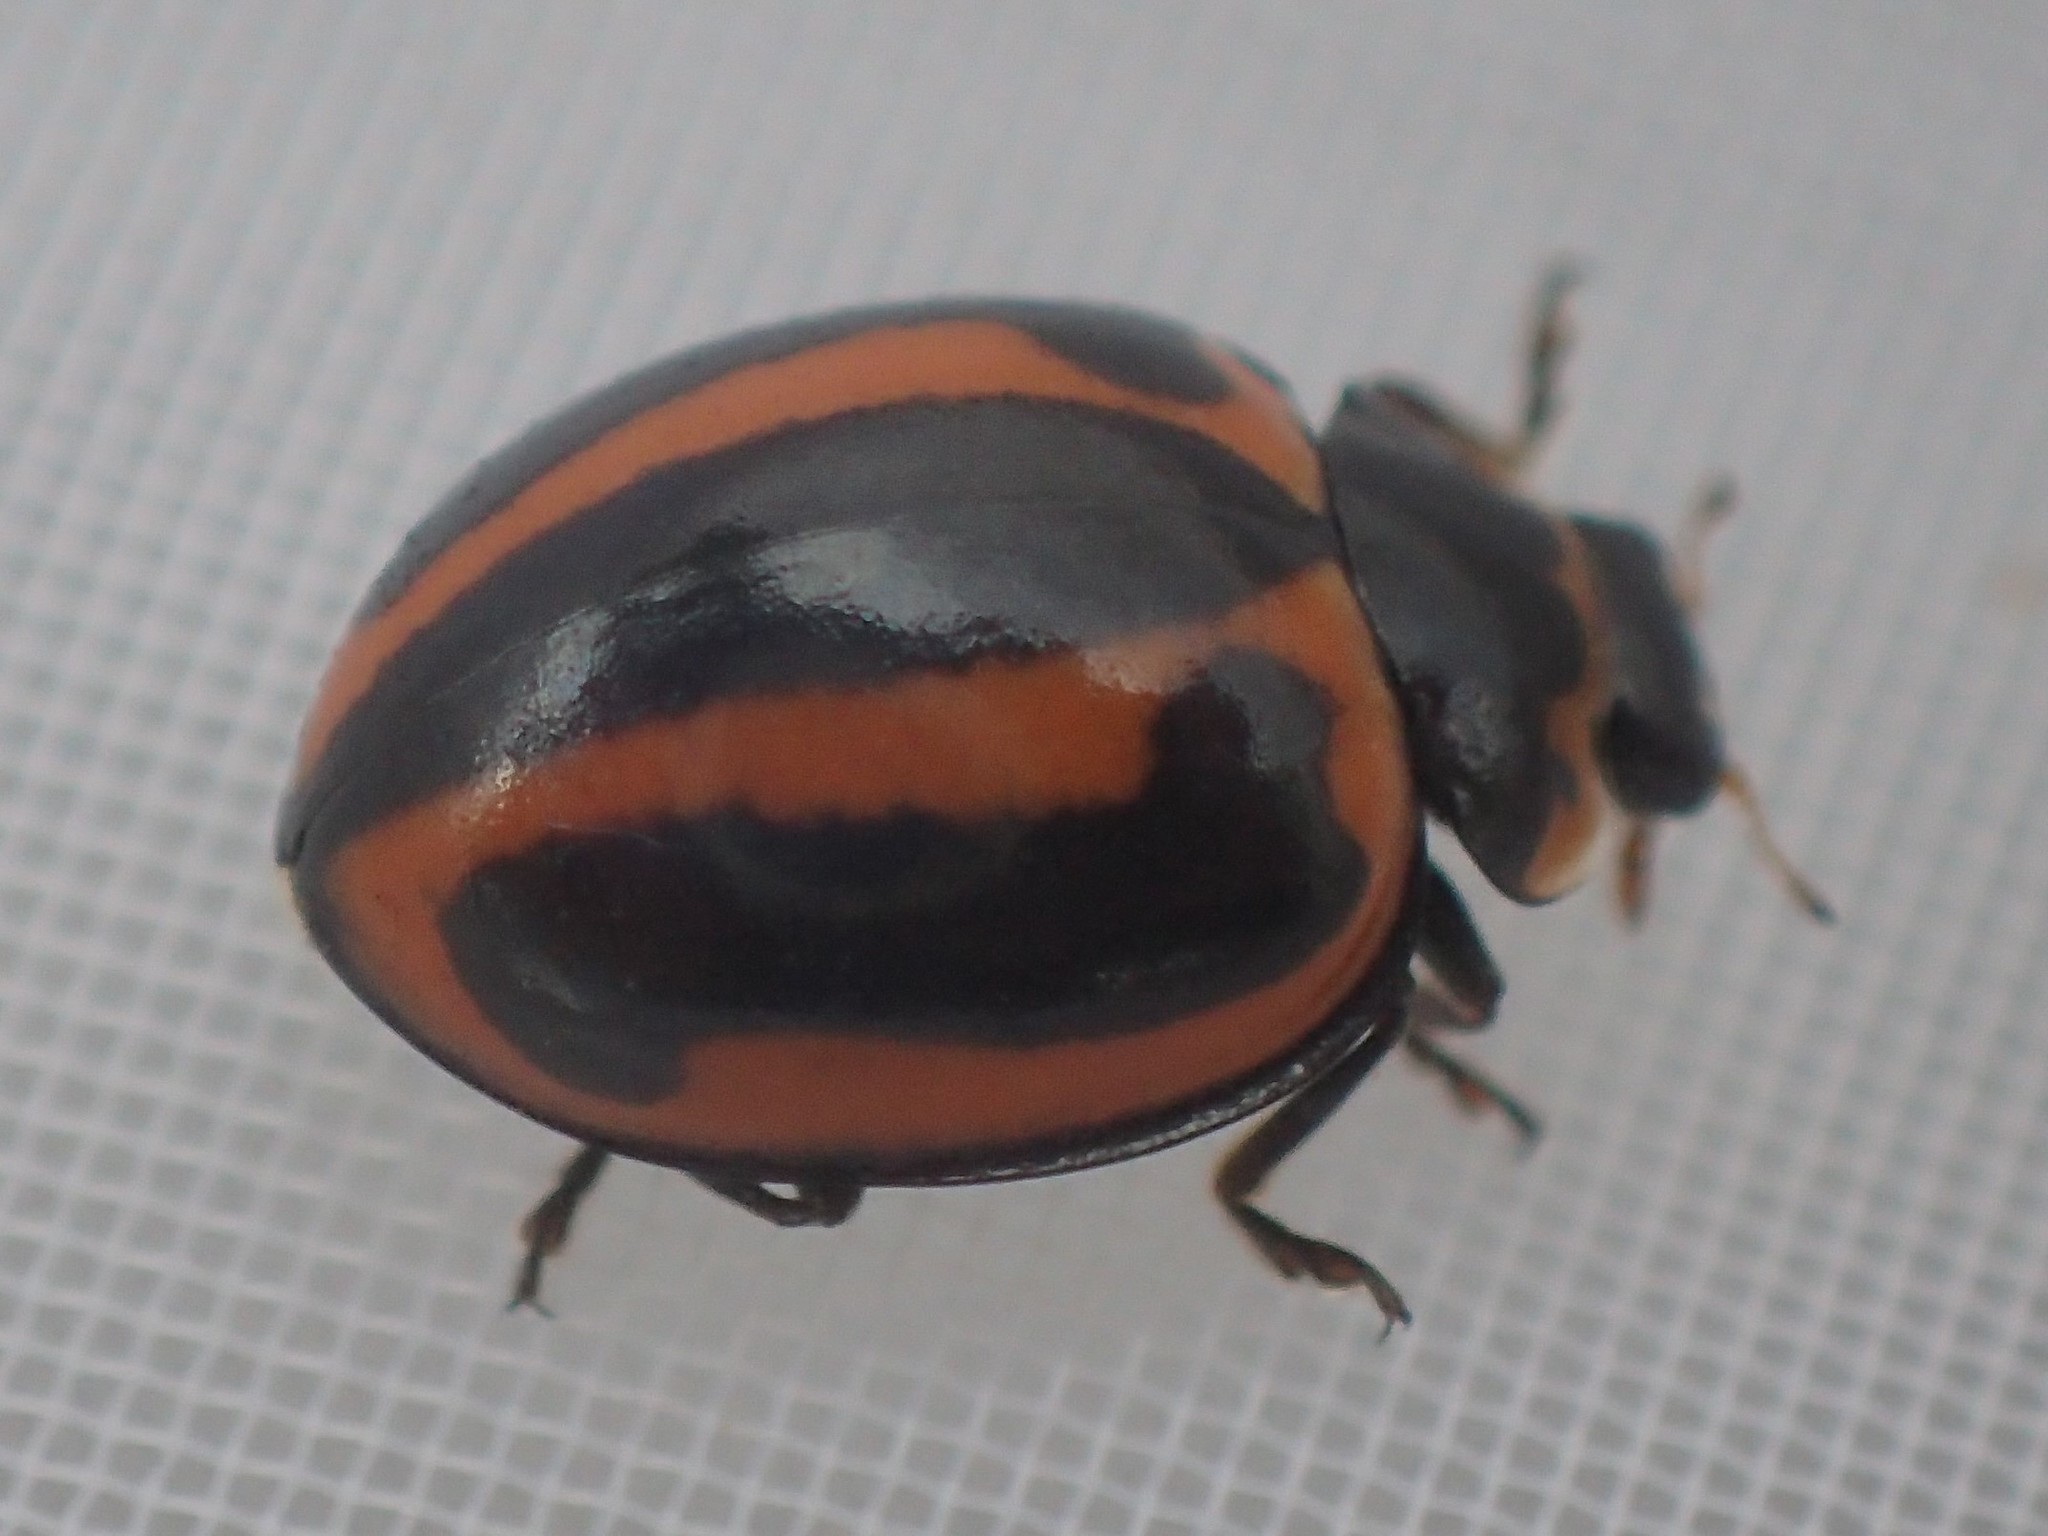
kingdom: Animalia
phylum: Arthropoda
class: Insecta
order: Coleoptera
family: Coccinellidae
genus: Micraspis
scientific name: Micraspis frenata
